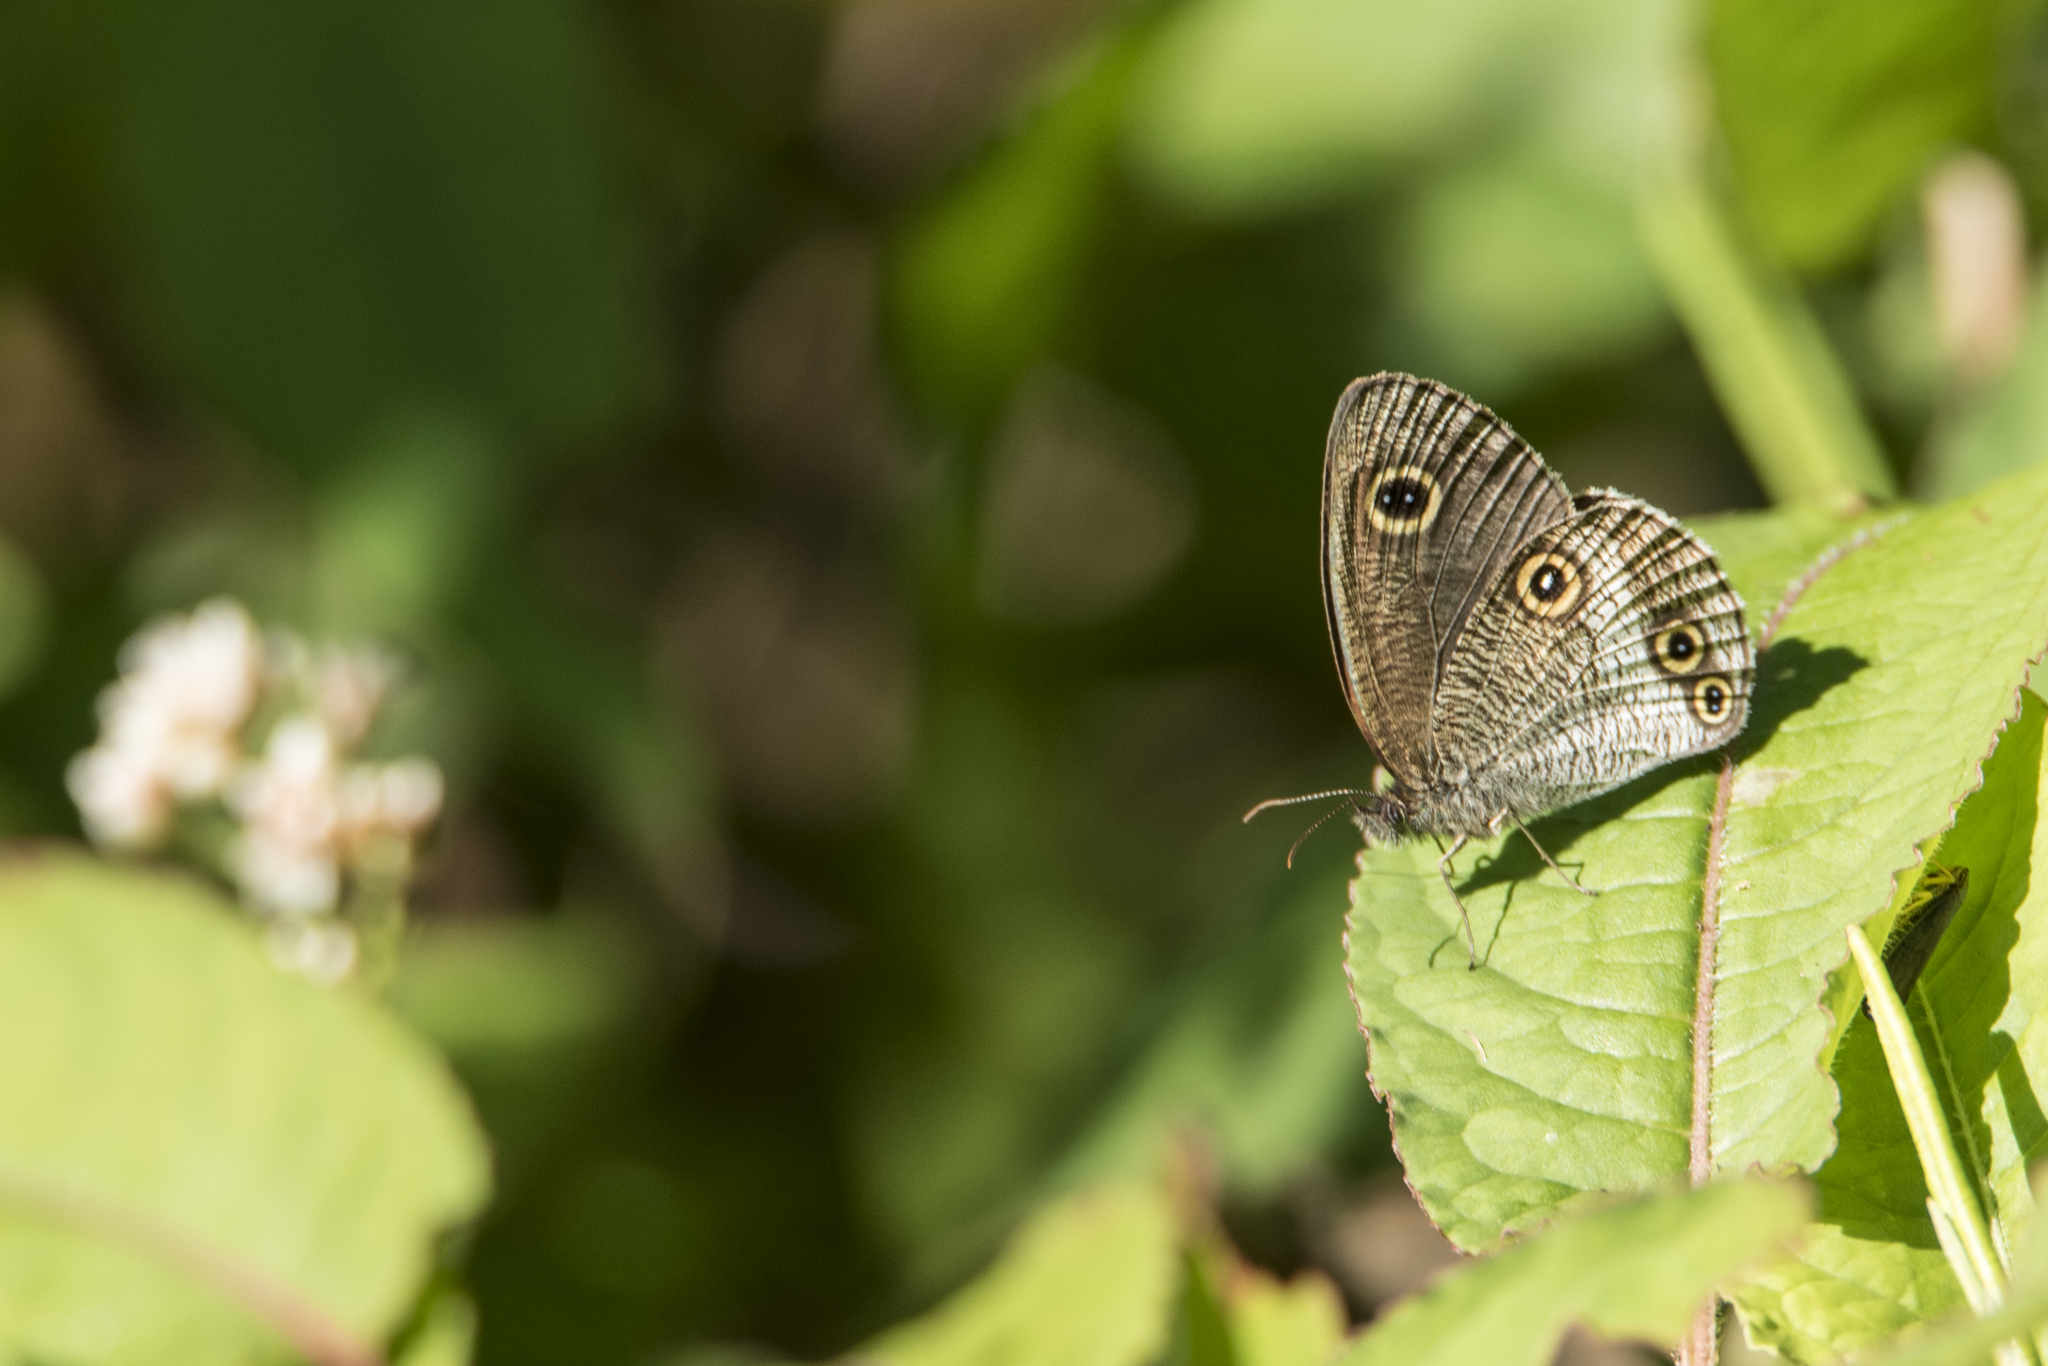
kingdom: Animalia
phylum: Arthropoda
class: Insecta
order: Lepidoptera
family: Nymphalidae
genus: Ypthima
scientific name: Ypthima motschulskyi
